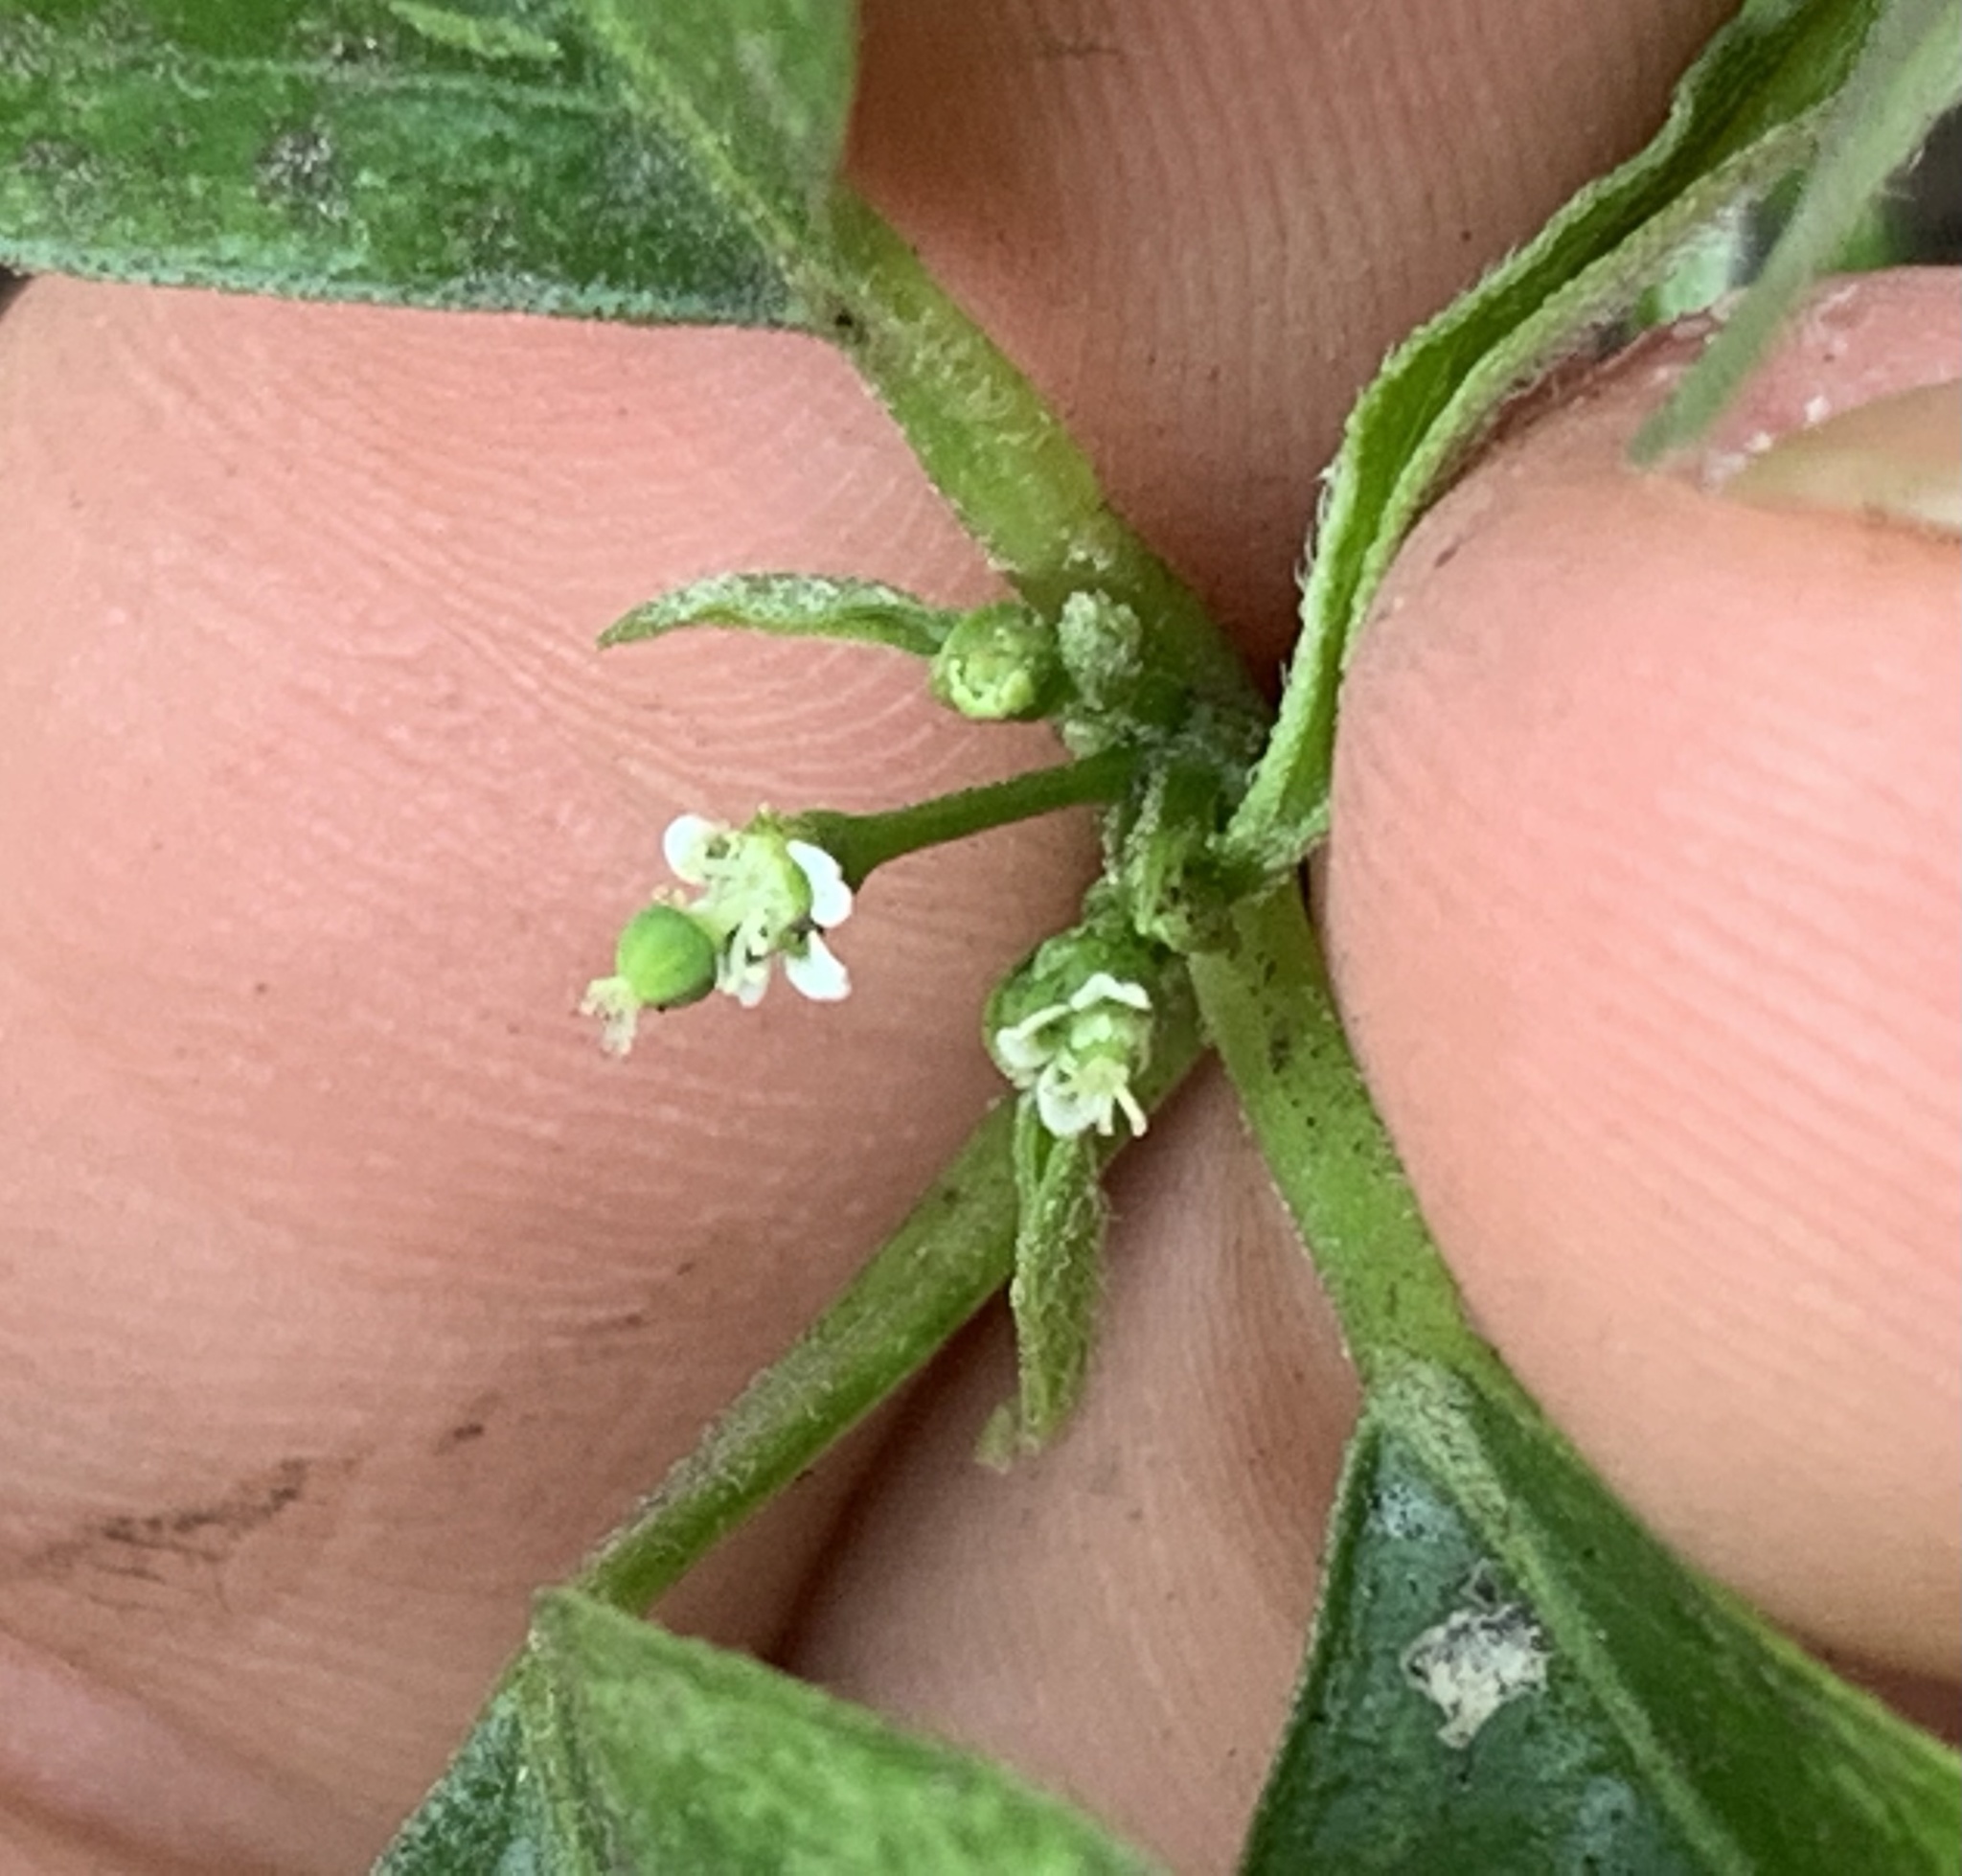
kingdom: Plantae
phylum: Tracheophyta
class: Magnoliopsida
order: Malpighiales
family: Euphorbiaceae
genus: Euphorbia
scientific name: Euphorbia graminea
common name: Grassleaf spurge
